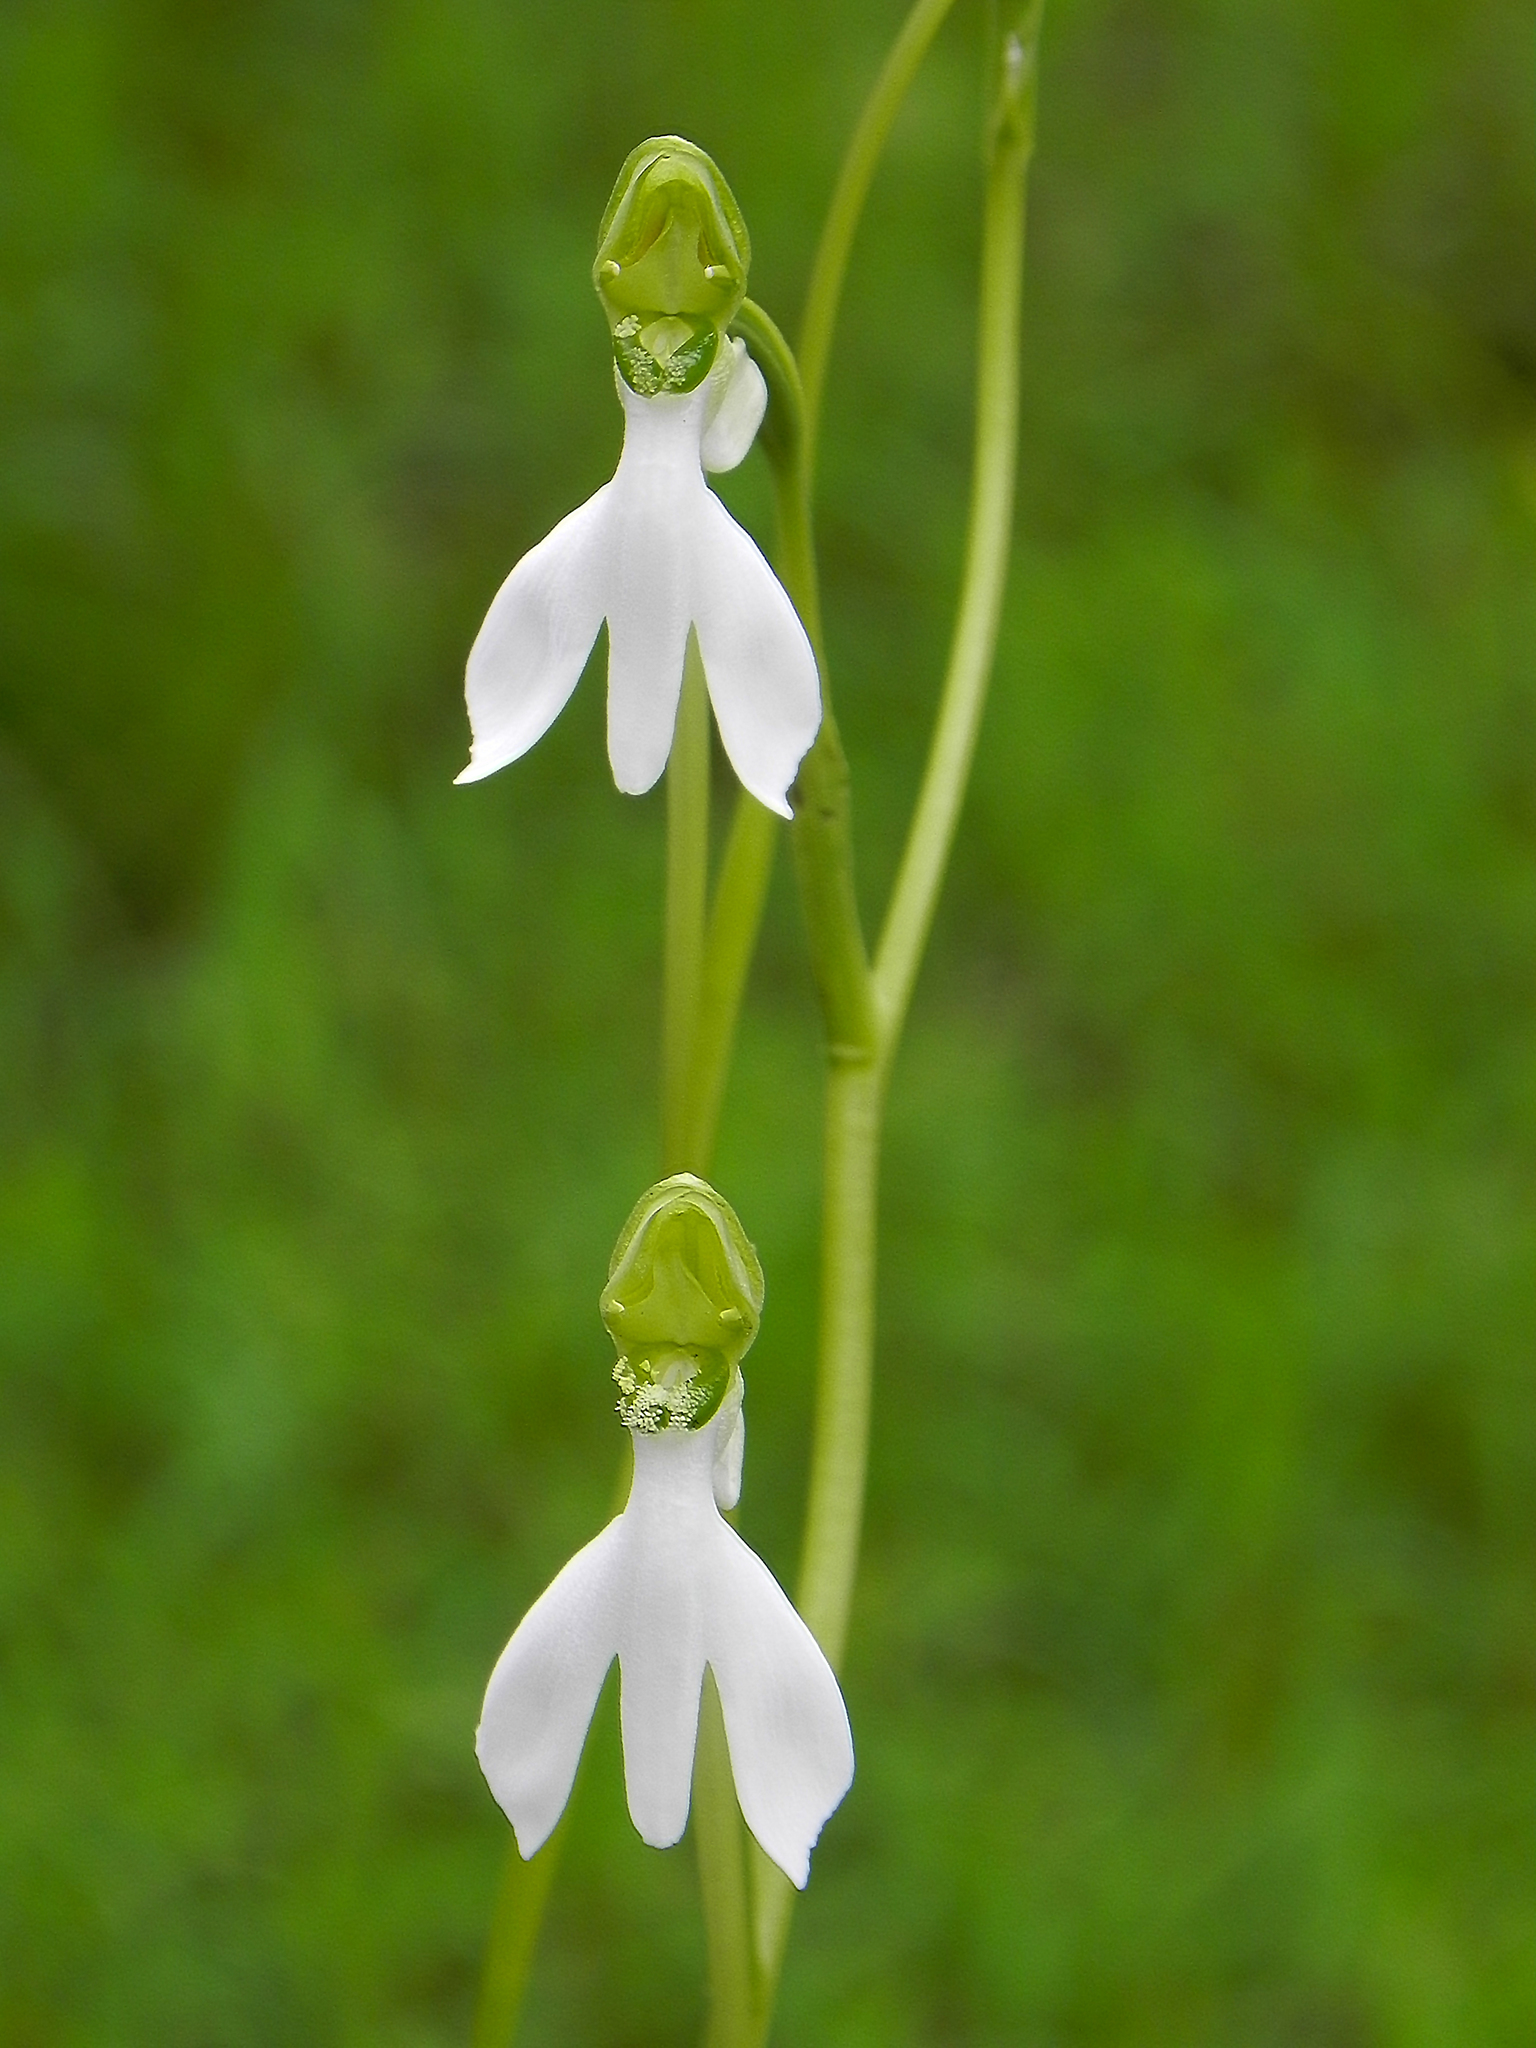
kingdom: Plantae
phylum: Tracheophyta
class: Liliopsida
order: Asparagales
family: Orchidaceae
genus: Habenaria
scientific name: Habenaria longicorniculata
